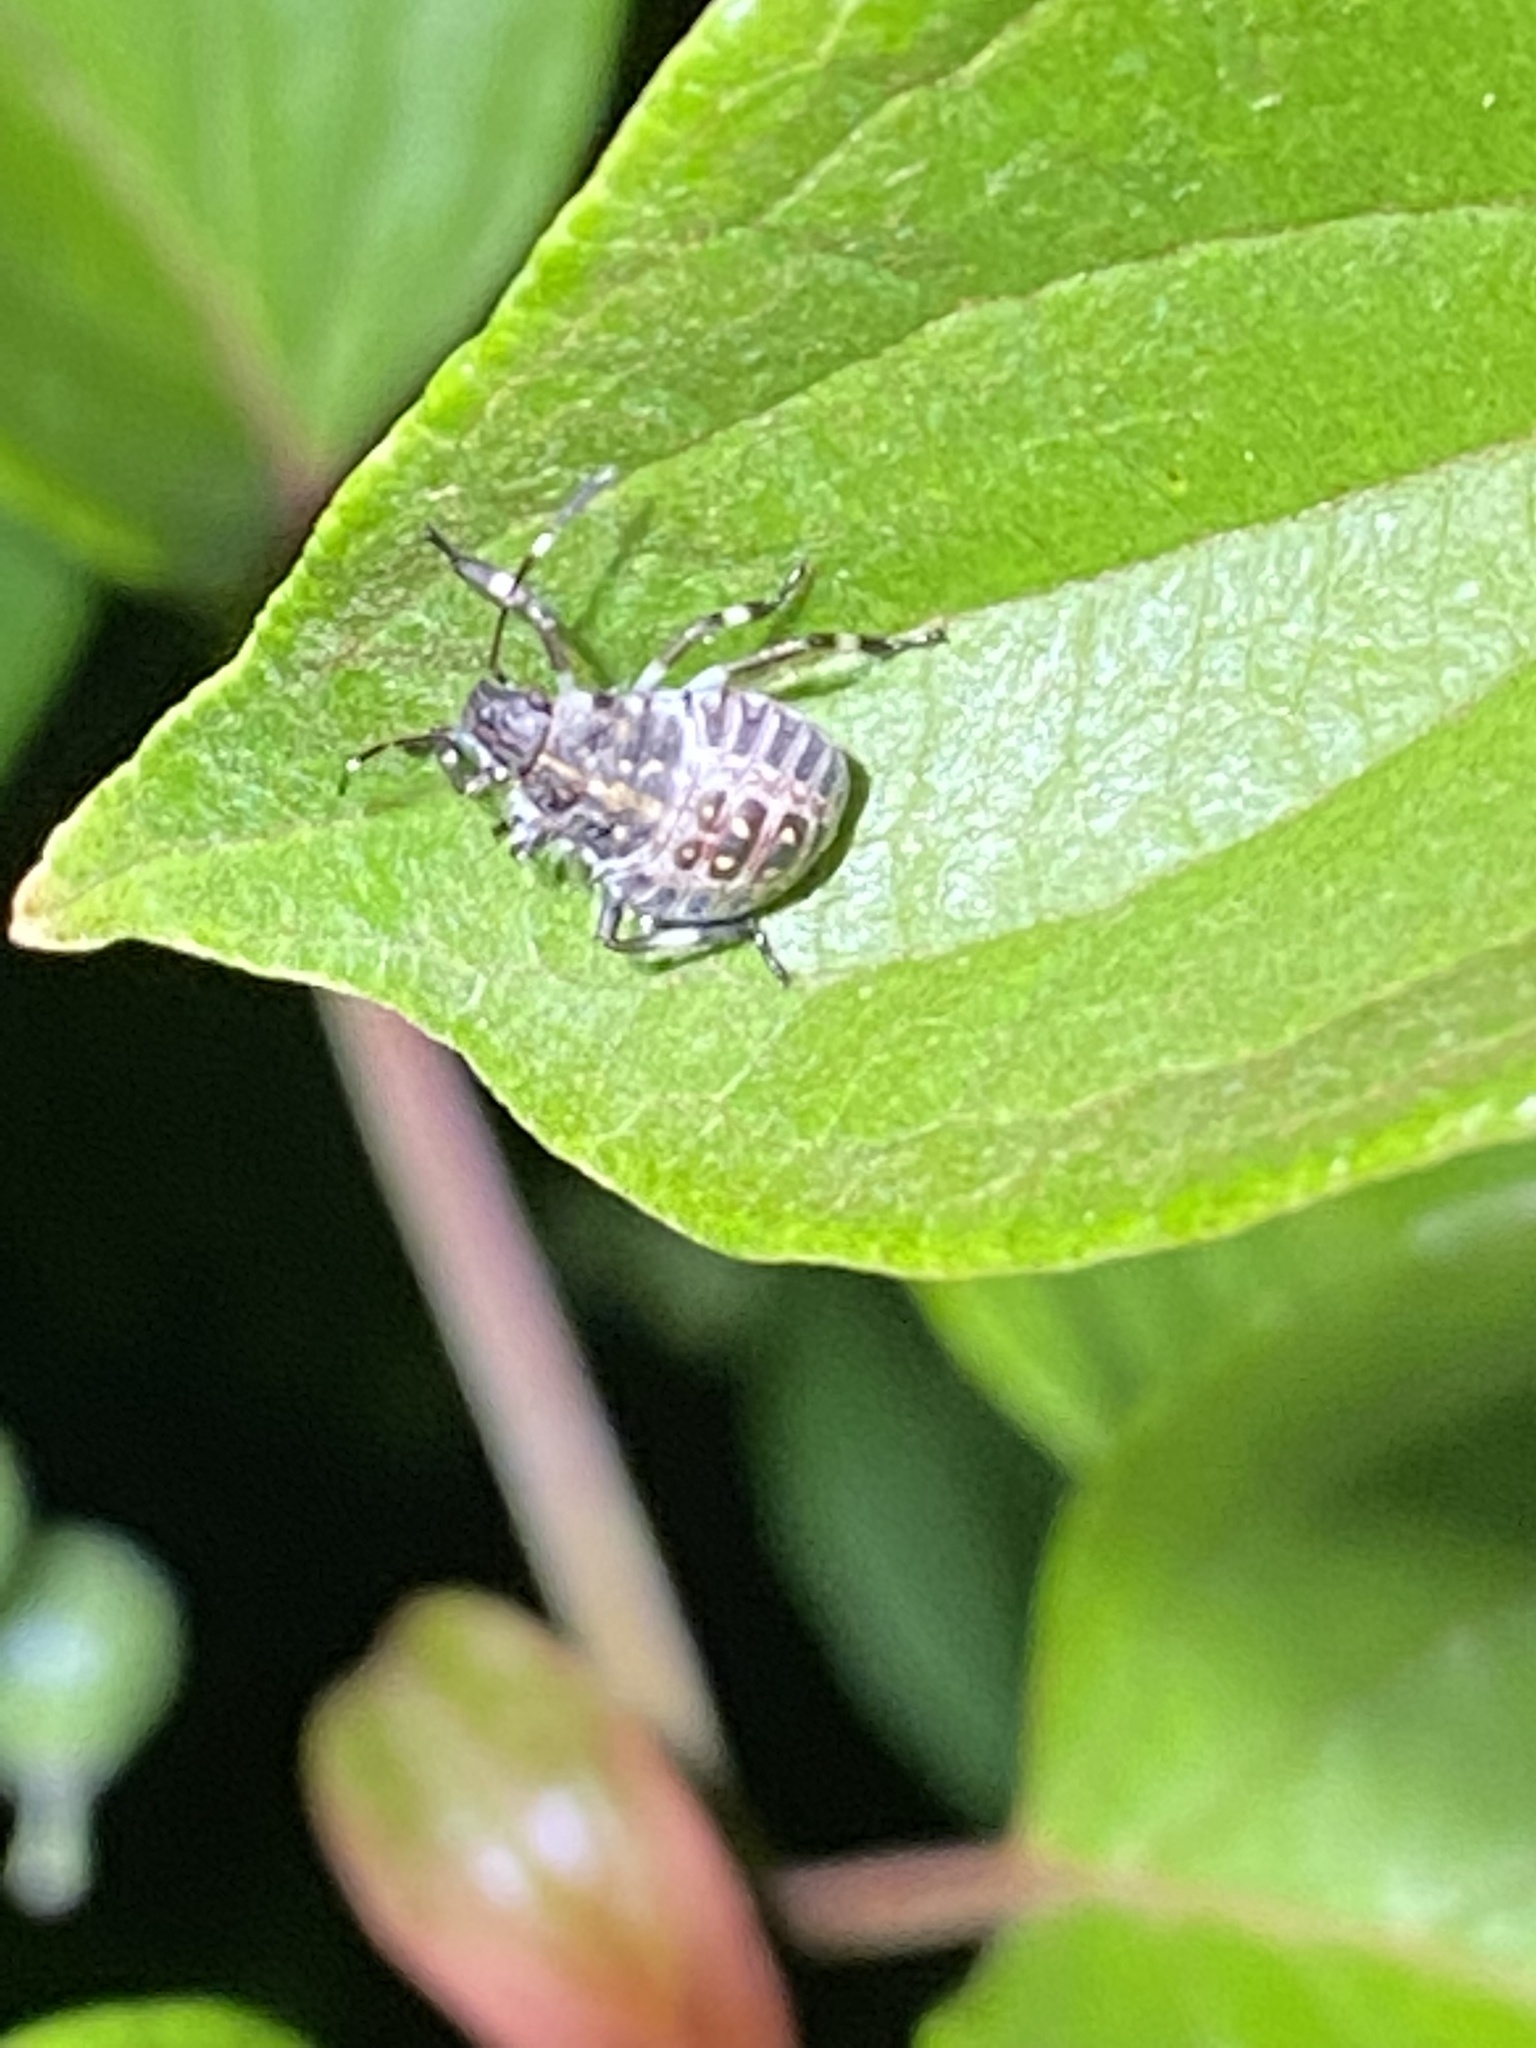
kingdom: Animalia
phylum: Arthropoda
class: Insecta
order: Hemiptera
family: Pentatomidae
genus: Halyomorpha
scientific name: Halyomorpha halys
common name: Brown marmorated stink bug
